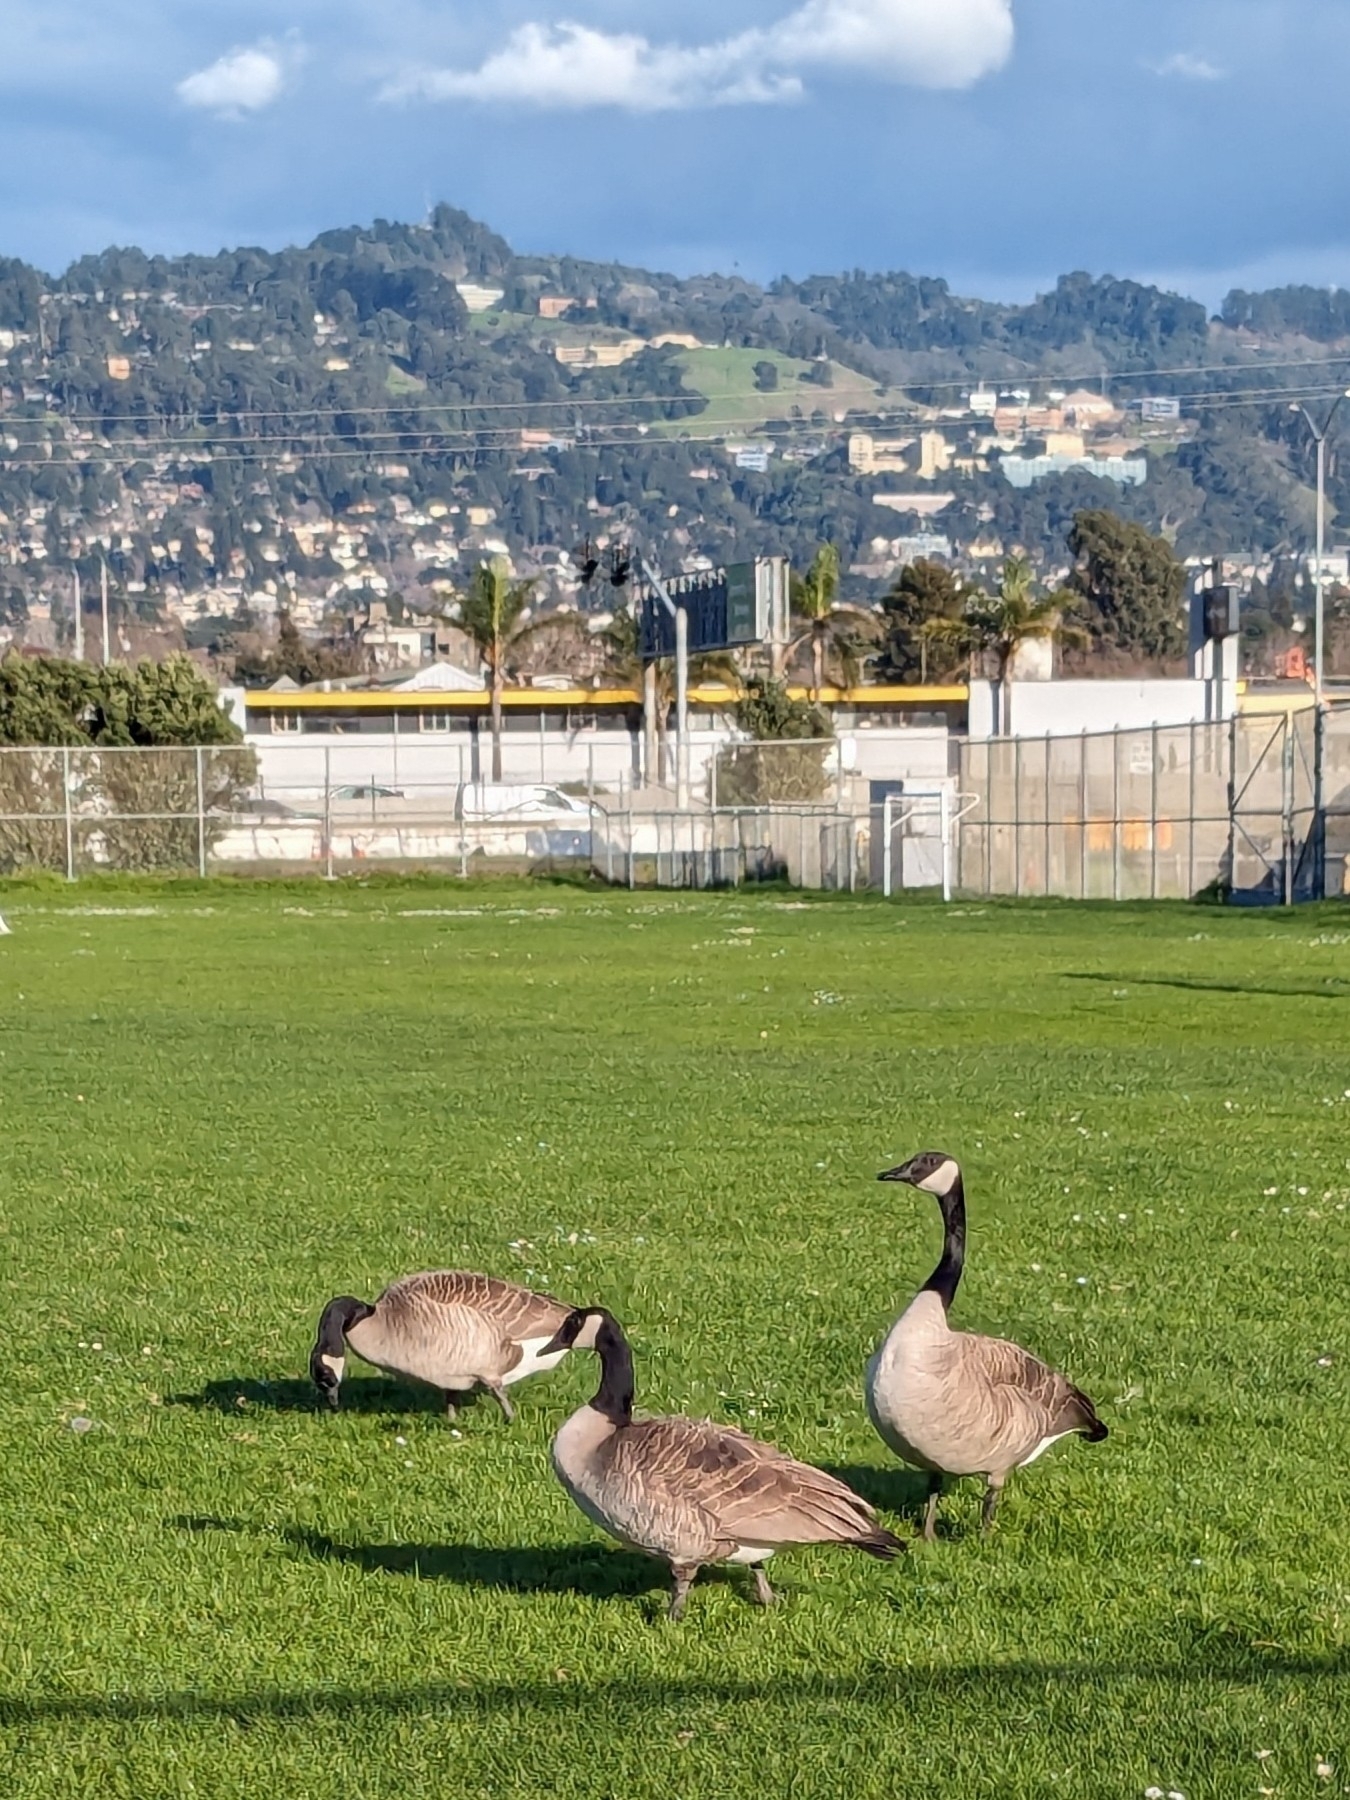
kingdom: Animalia
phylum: Chordata
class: Aves
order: Anseriformes
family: Anatidae
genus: Branta
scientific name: Branta canadensis
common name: Canada goose
